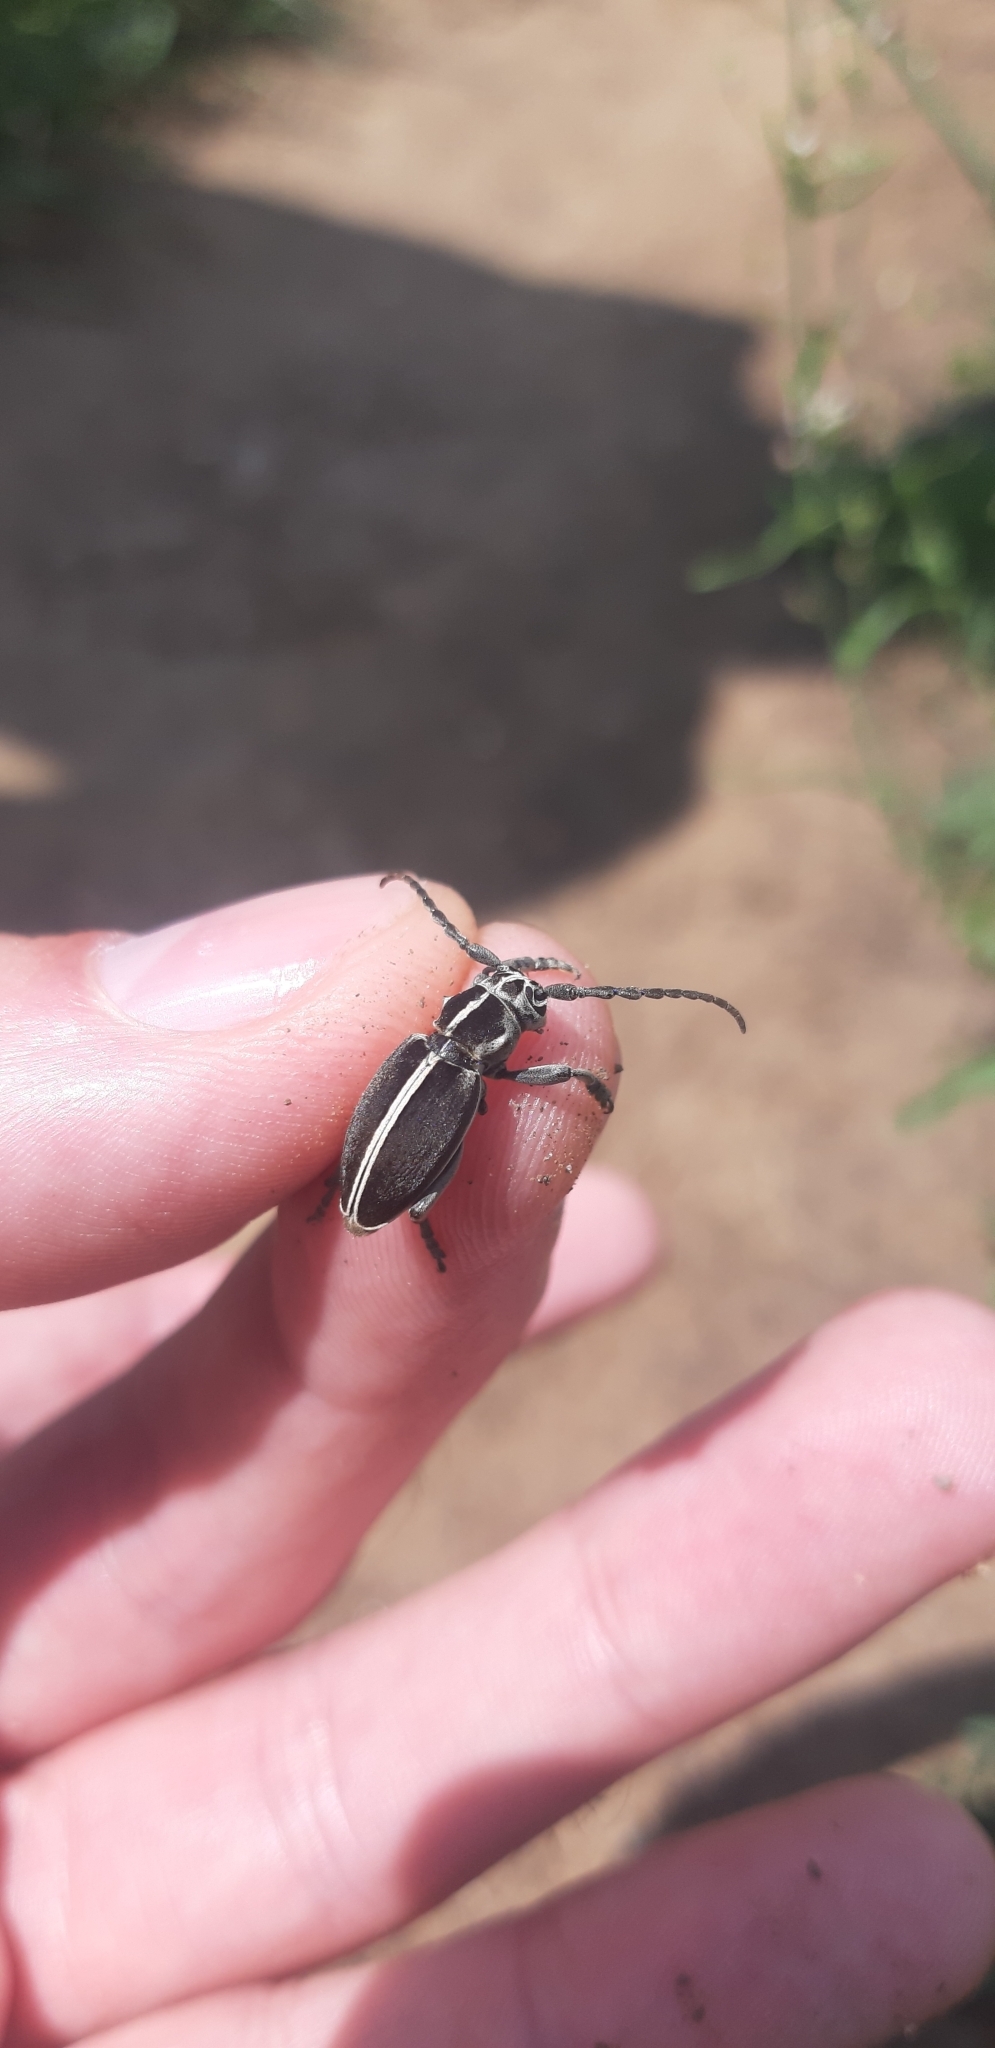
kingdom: Animalia
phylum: Arthropoda
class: Insecta
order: Coleoptera
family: Cerambycidae
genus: Dorcadion
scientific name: Dorcadion arenarium
